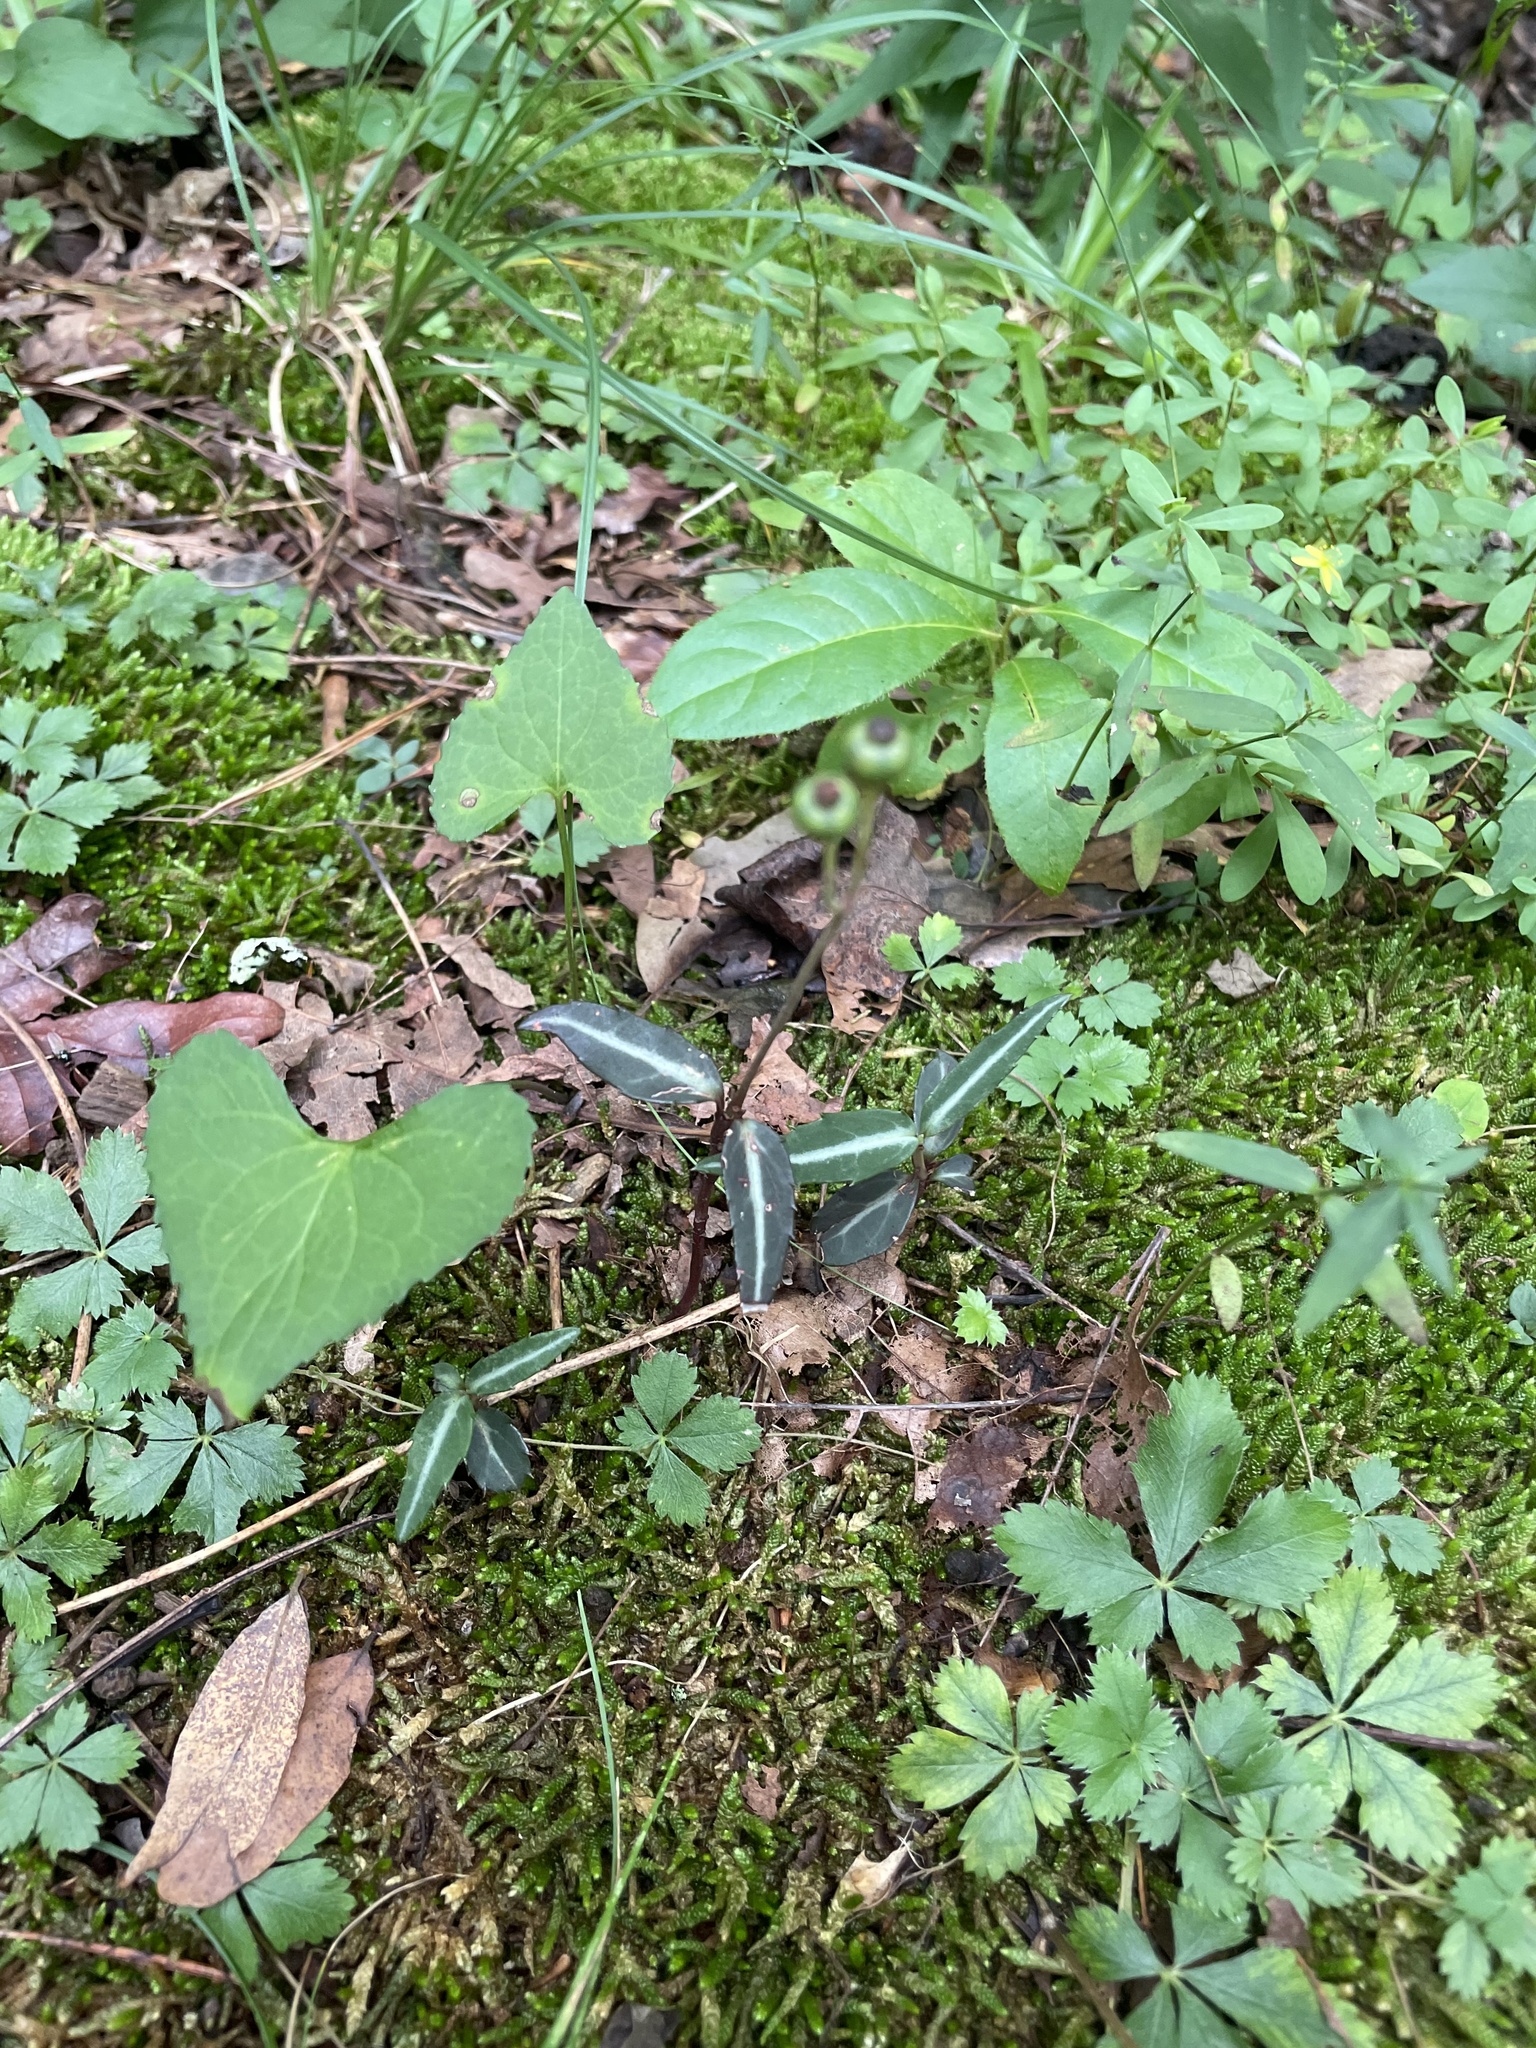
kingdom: Plantae
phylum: Tracheophyta
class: Magnoliopsida
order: Ericales
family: Ericaceae
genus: Chimaphila
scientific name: Chimaphila maculata
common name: Spotted pipsissewa
